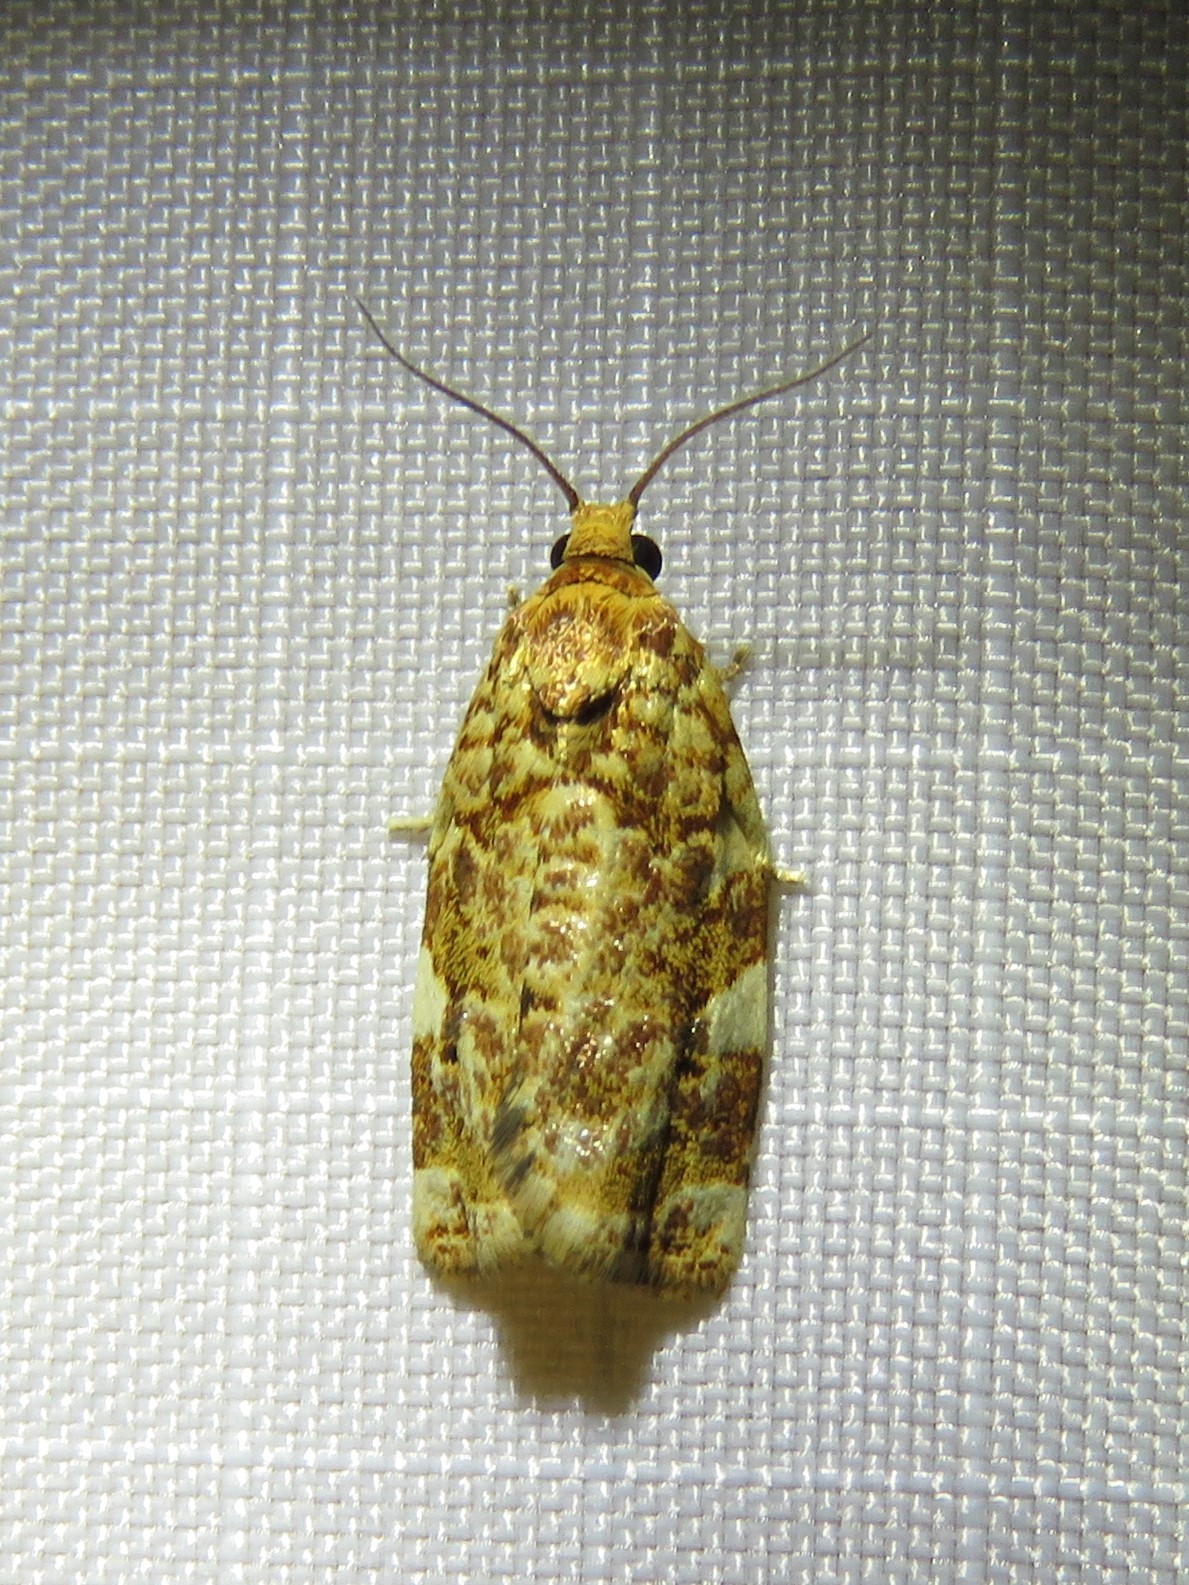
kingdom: Animalia
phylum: Arthropoda
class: Insecta
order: Lepidoptera
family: Tortricidae
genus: Archips
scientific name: Archips argyrospila
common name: Fruit-tree leafroller moth
